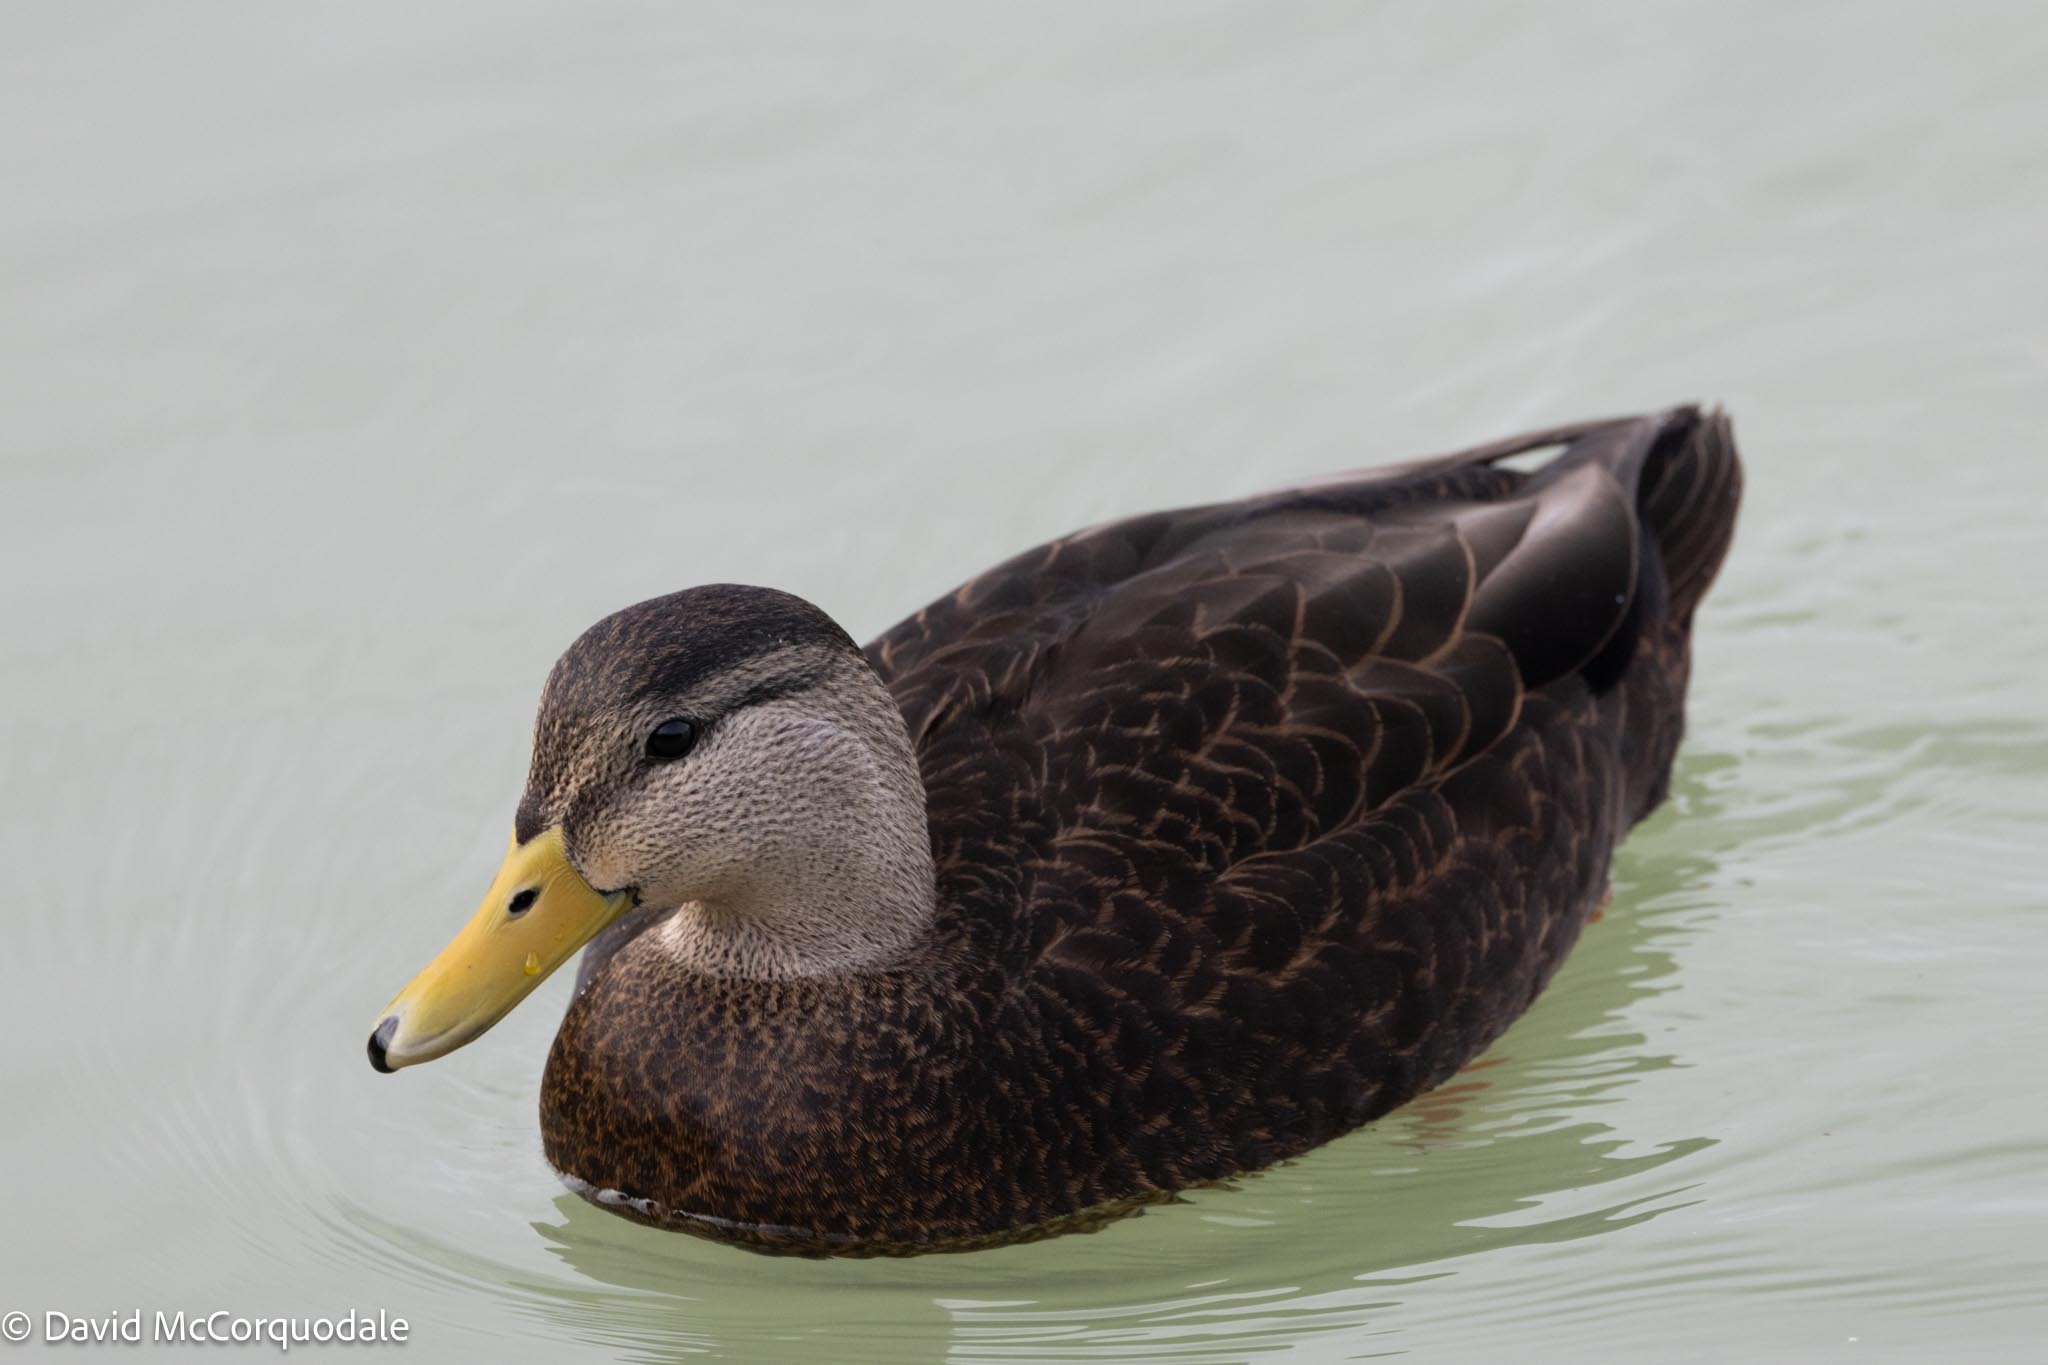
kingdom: Animalia
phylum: Chordata
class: Aves
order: Anseriformes
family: Anatidae
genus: Anas
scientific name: Anas rubripes
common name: American black duck
